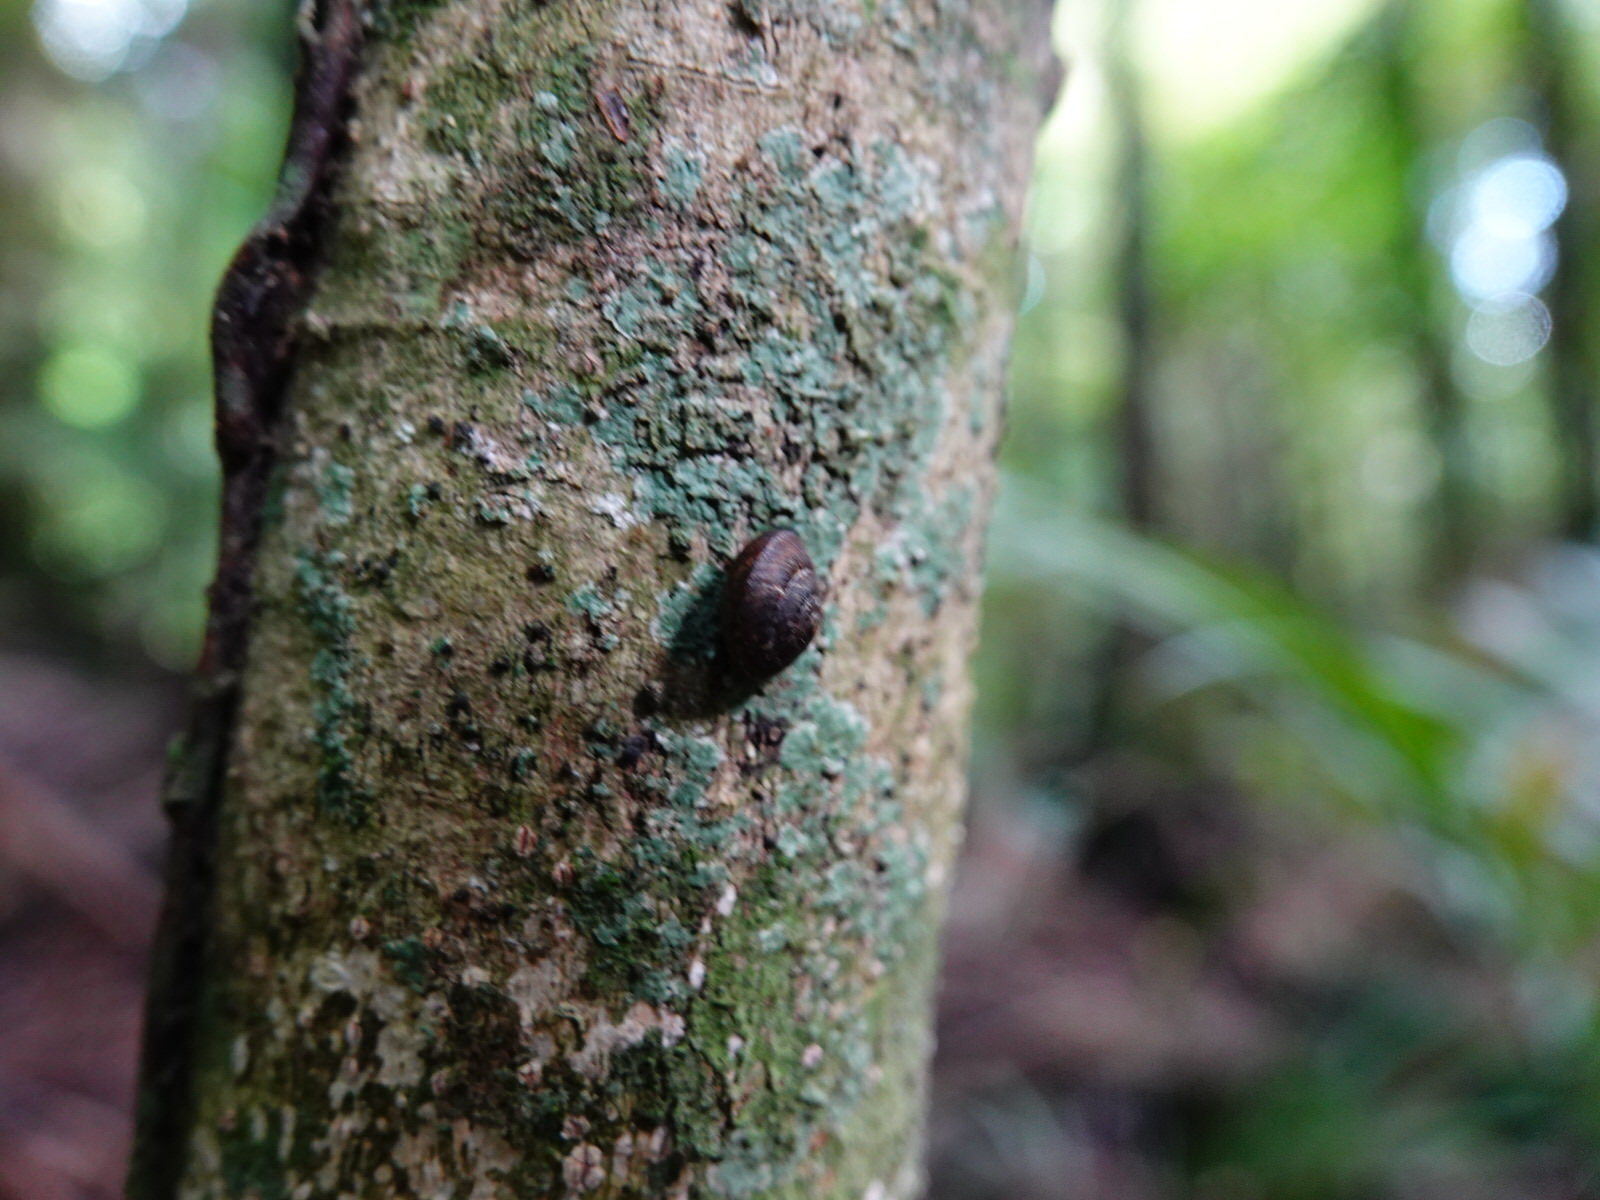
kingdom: Animalia
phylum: Mollusca
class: Gastropoda
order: Stylommatophora
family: Charopidae
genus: Thalassohelix
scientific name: Thalassohelix zelandiae
